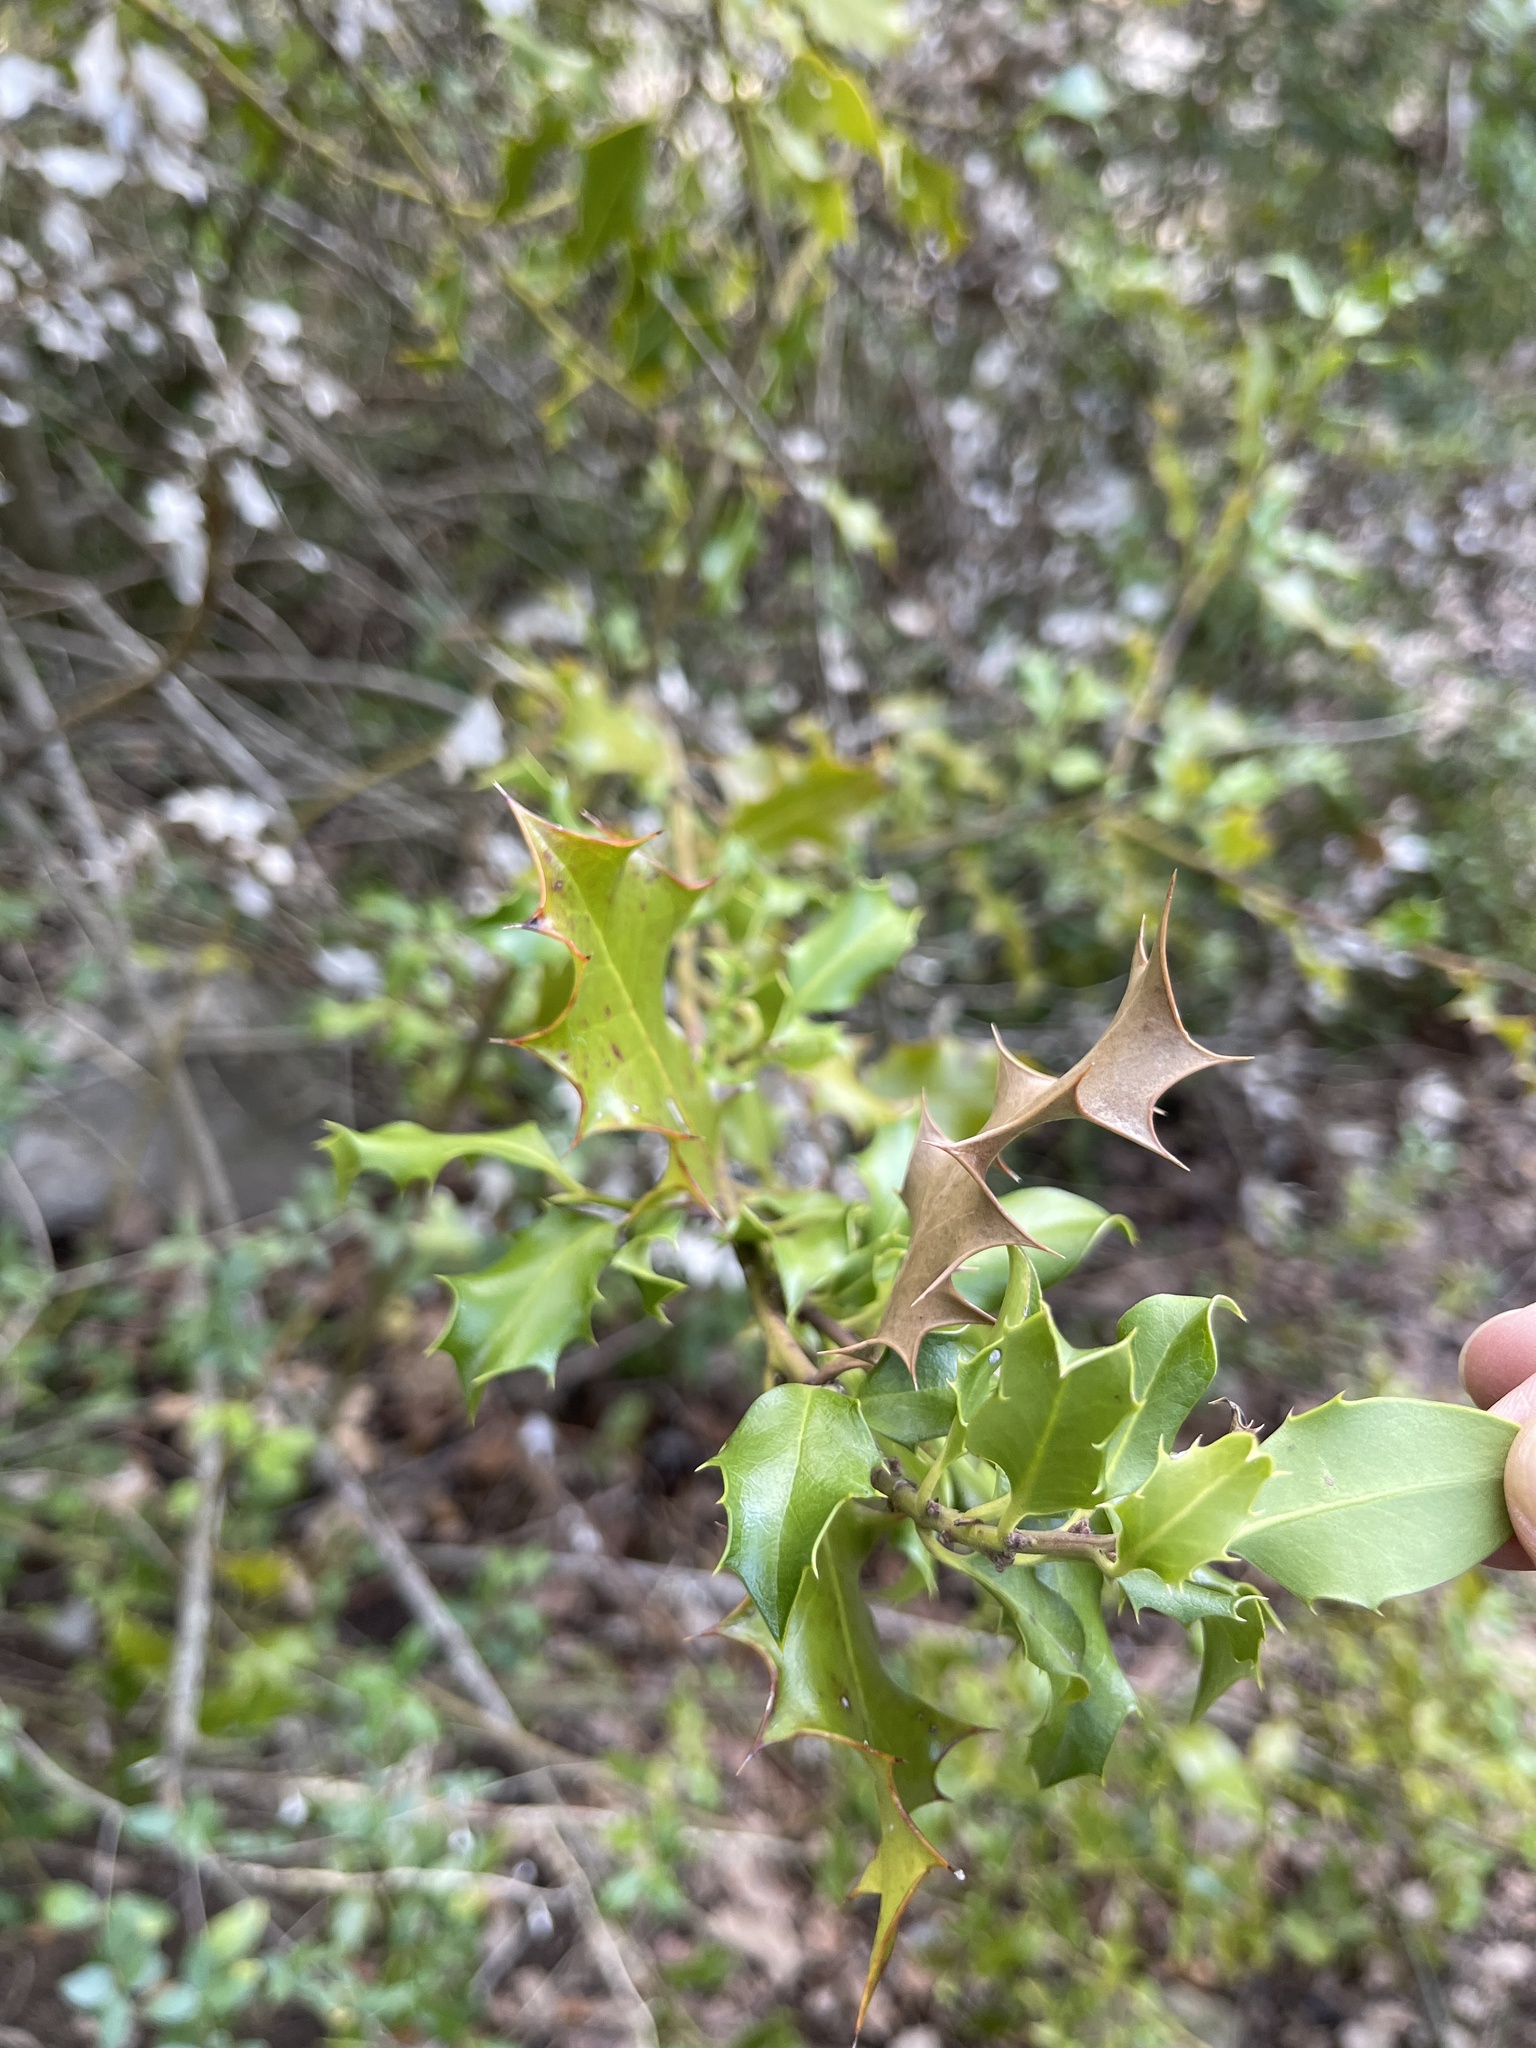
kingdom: Plantae
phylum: Tracheophyta
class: Magnoliopsida
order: Aquifoliales
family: Aquifoliaceae
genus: Ilex
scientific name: Ilex aquifolium
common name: English holly
